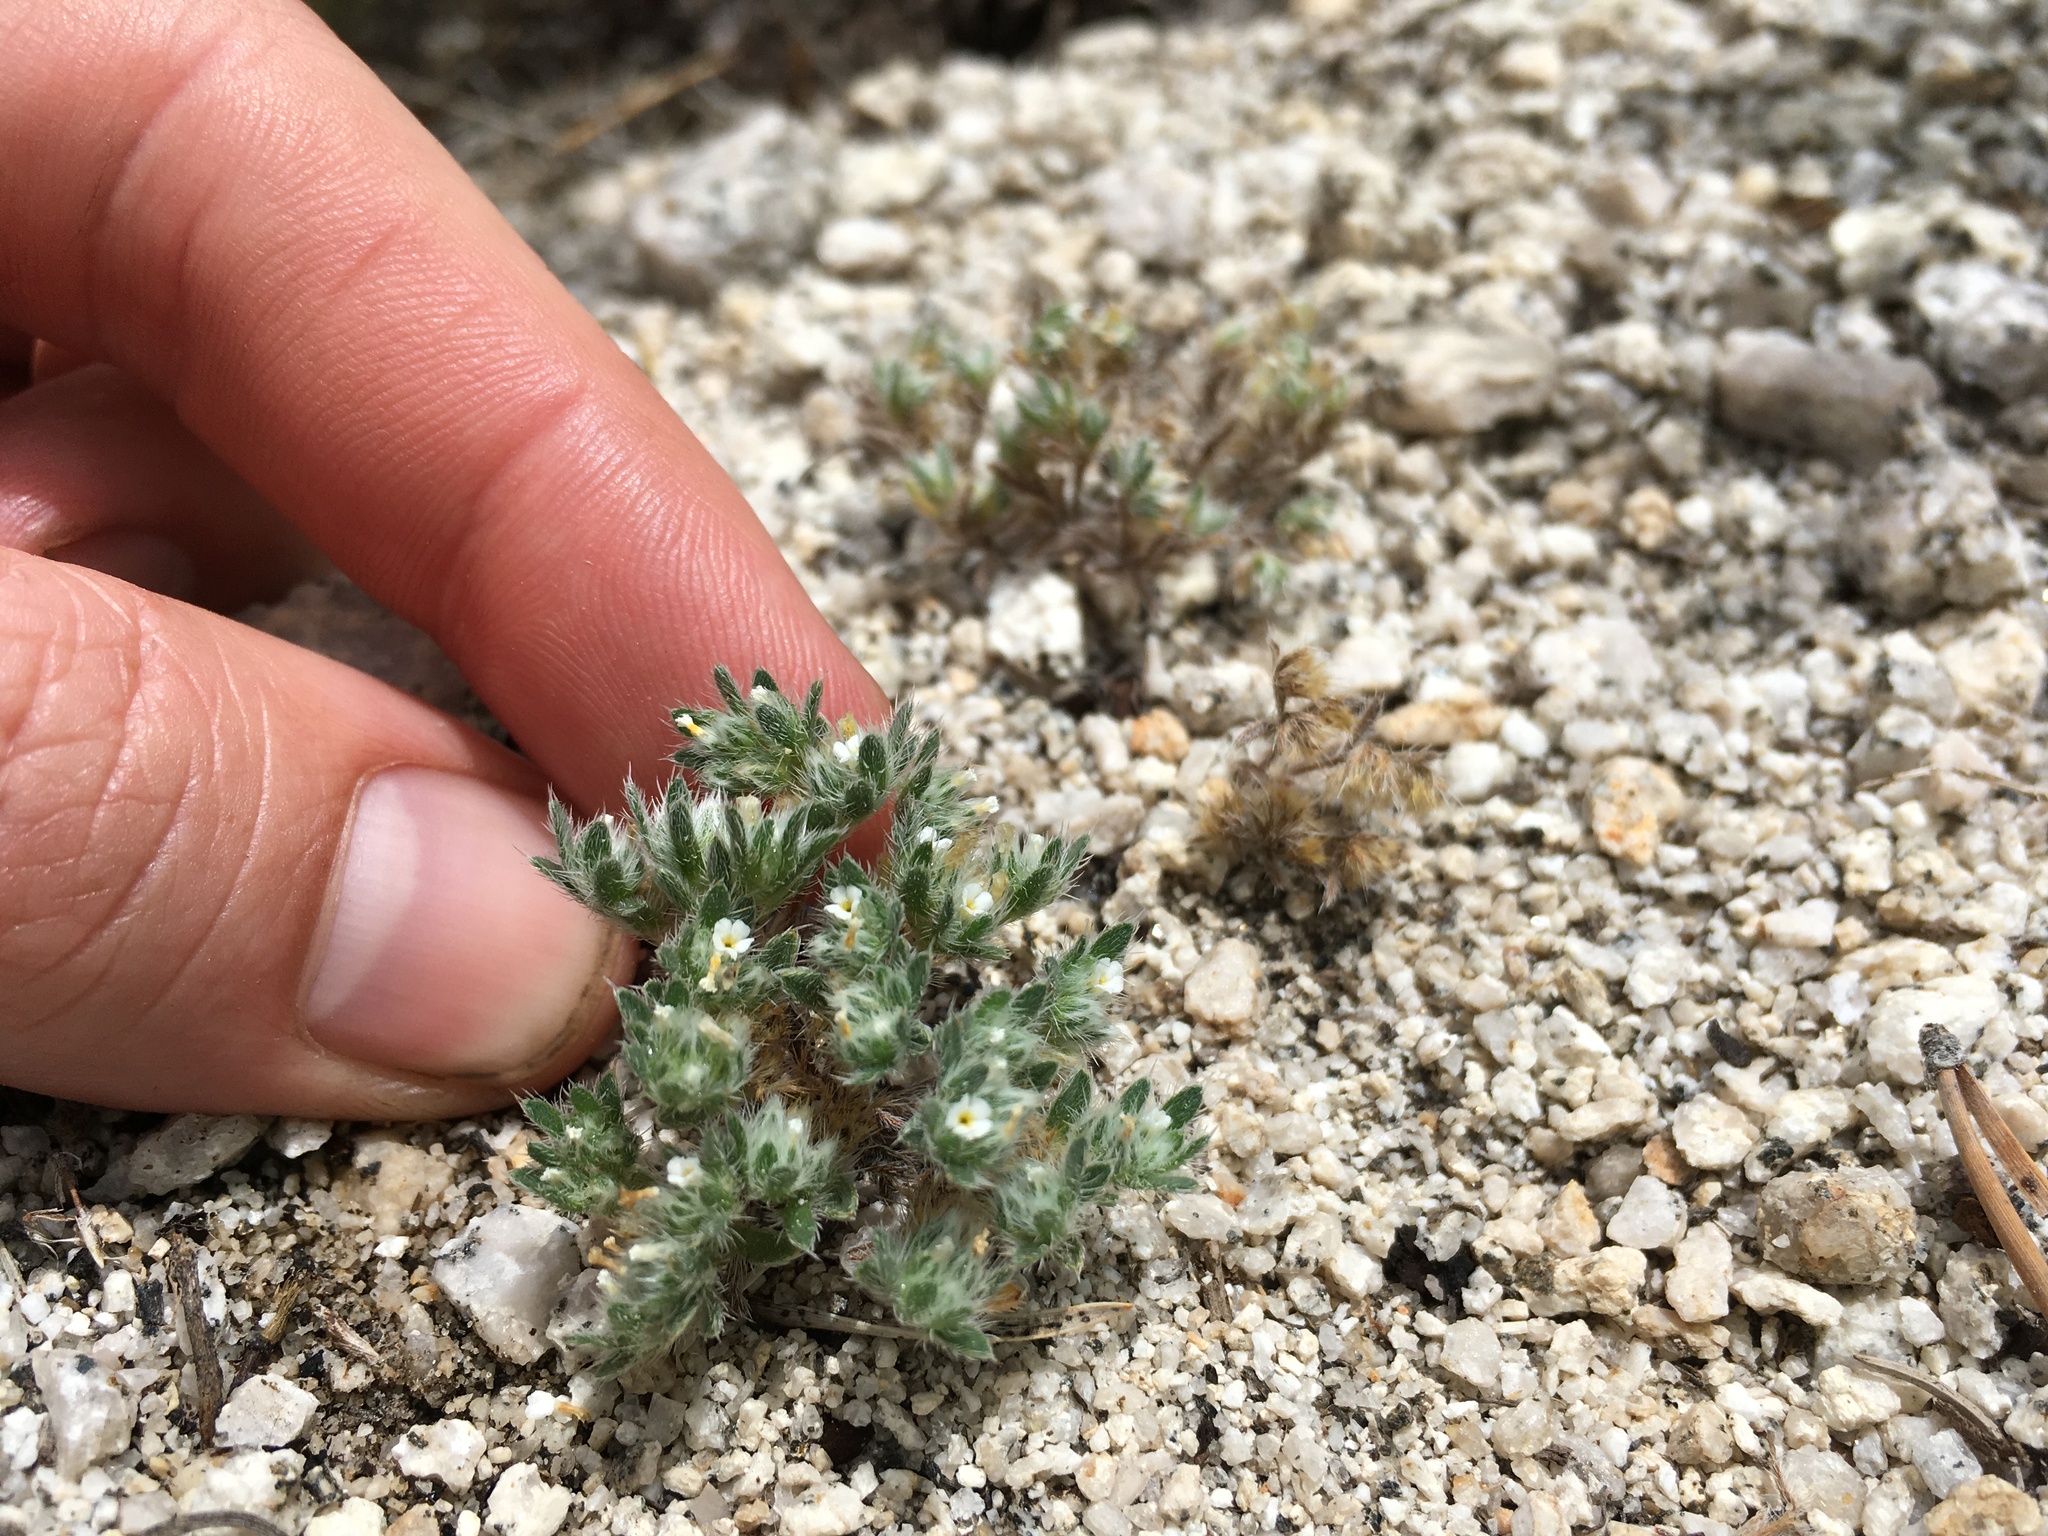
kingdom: Plantae
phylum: Tracheophyta
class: Magnoliopsida
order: Boraginales
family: Boraginaceae
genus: Greeneocharis
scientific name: Greeneocharis circumscissa
